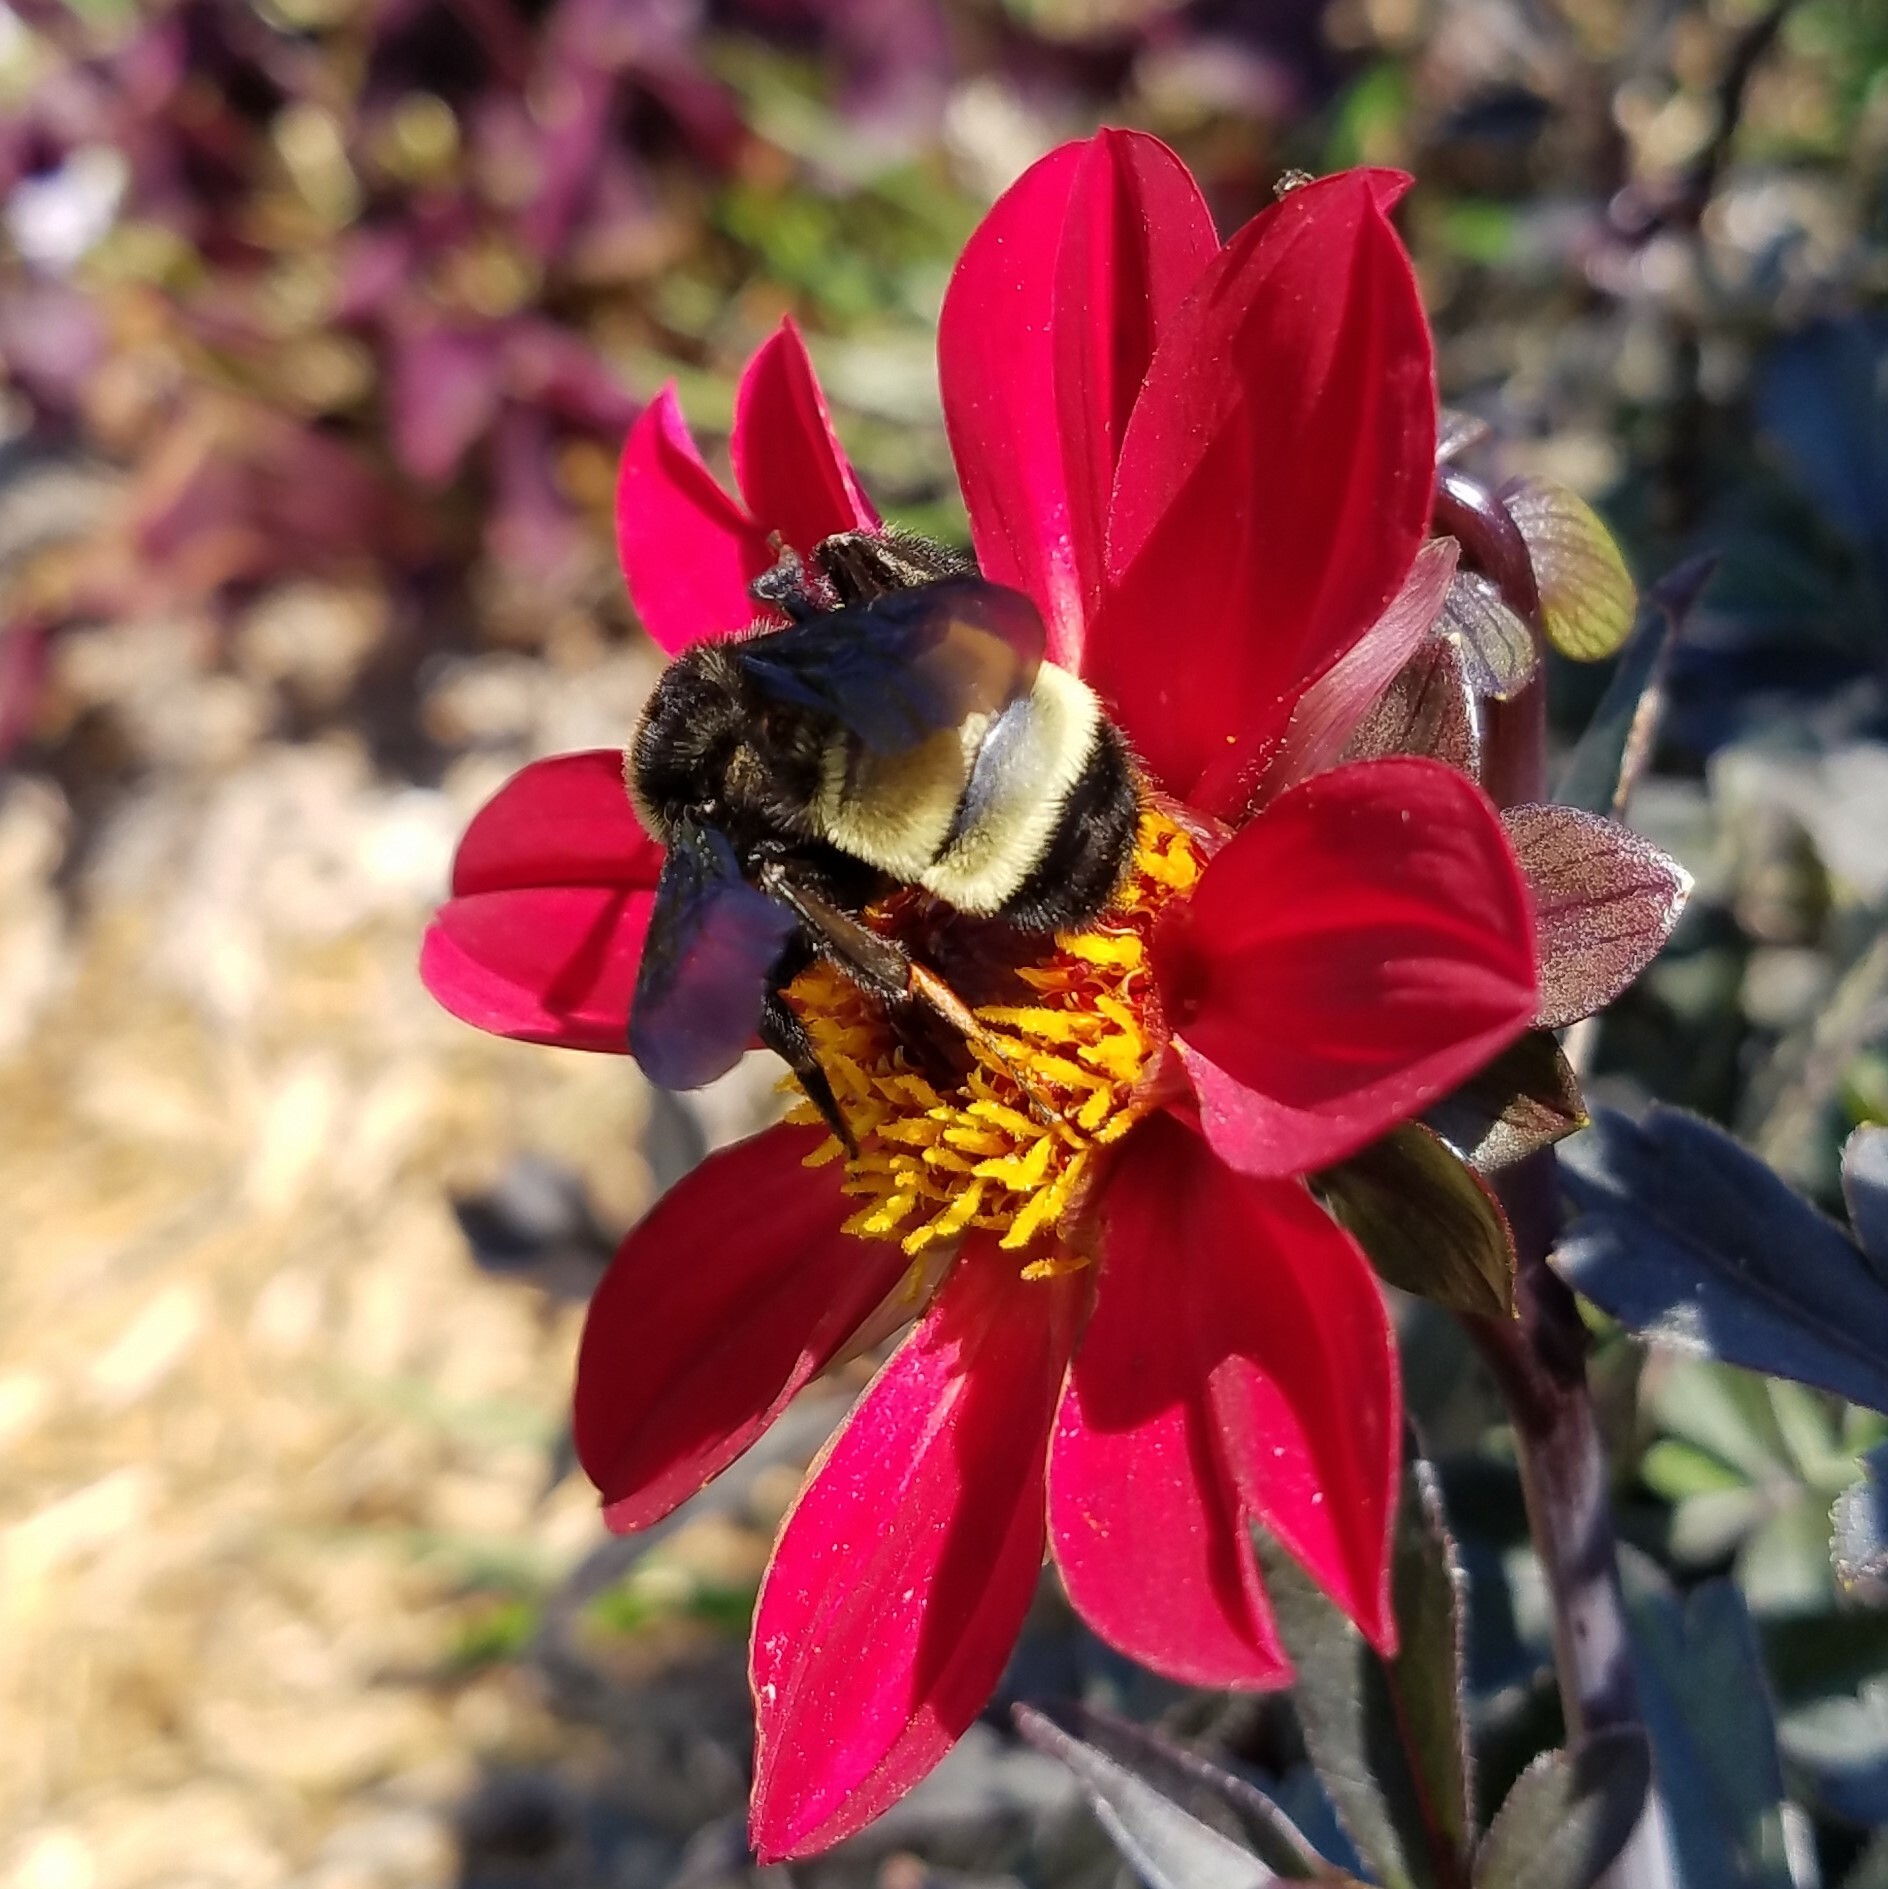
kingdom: Animalia
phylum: Arthropoda
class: Insecta
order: Hymenoptera
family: Apidae
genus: Bombus
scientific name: Bombus pensylvanicus
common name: Bumble bee
